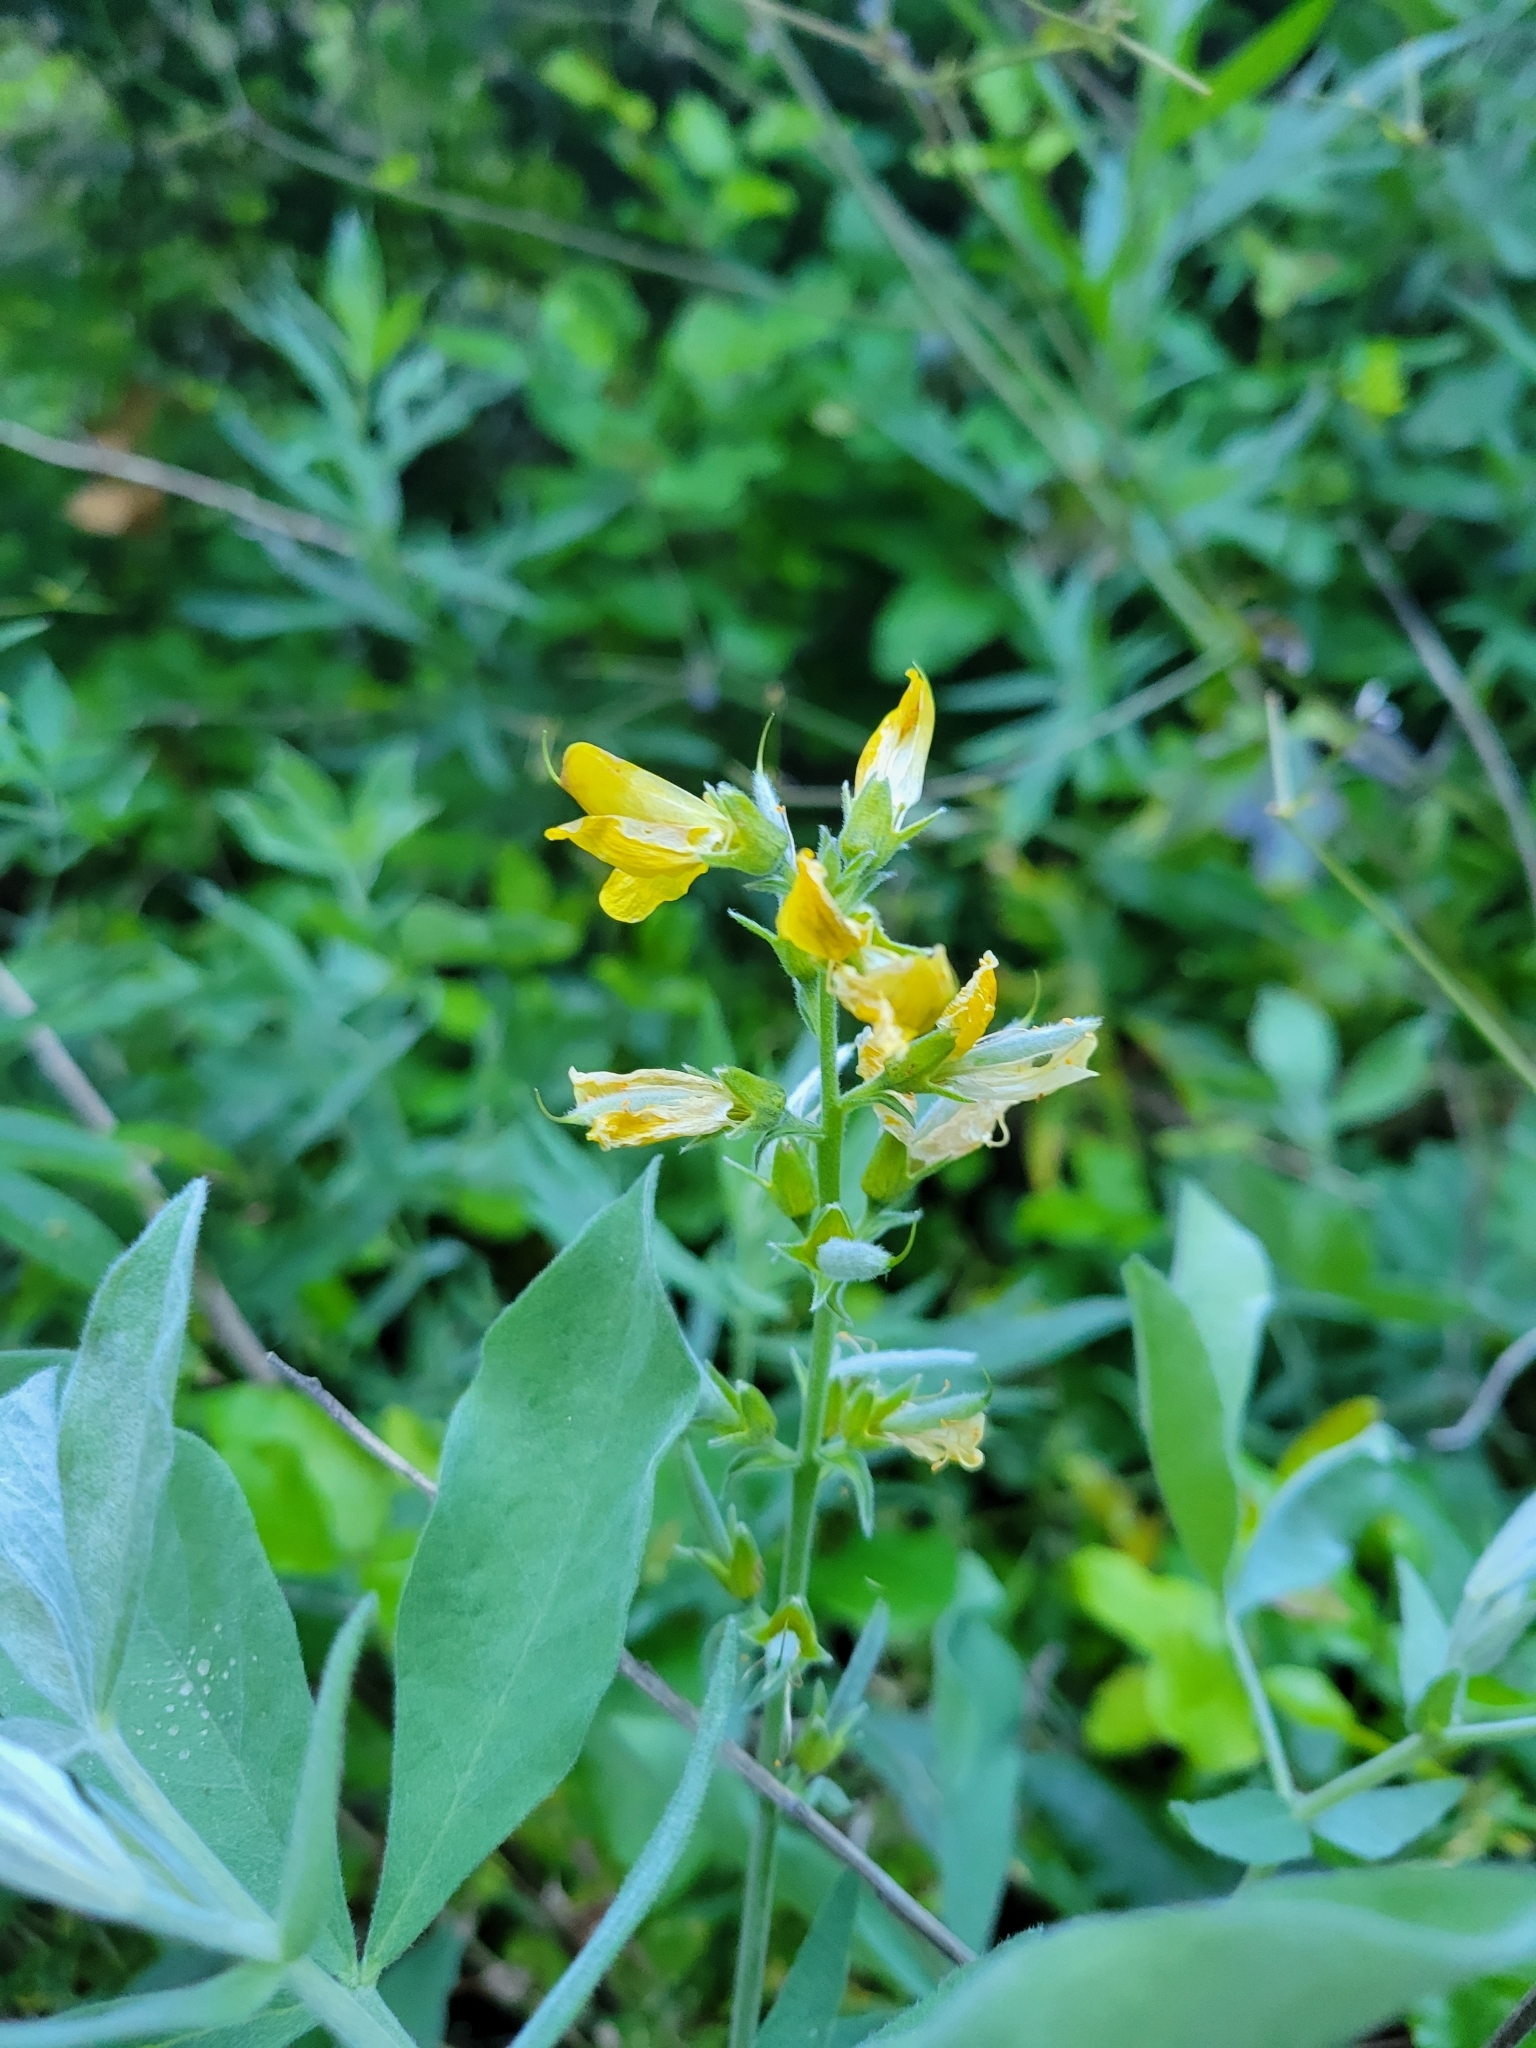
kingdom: Plantae
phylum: Tracheophyta
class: Magnoliopsida
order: Fabales
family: Fabaceae
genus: Thermopsis
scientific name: Thermopsis californica
